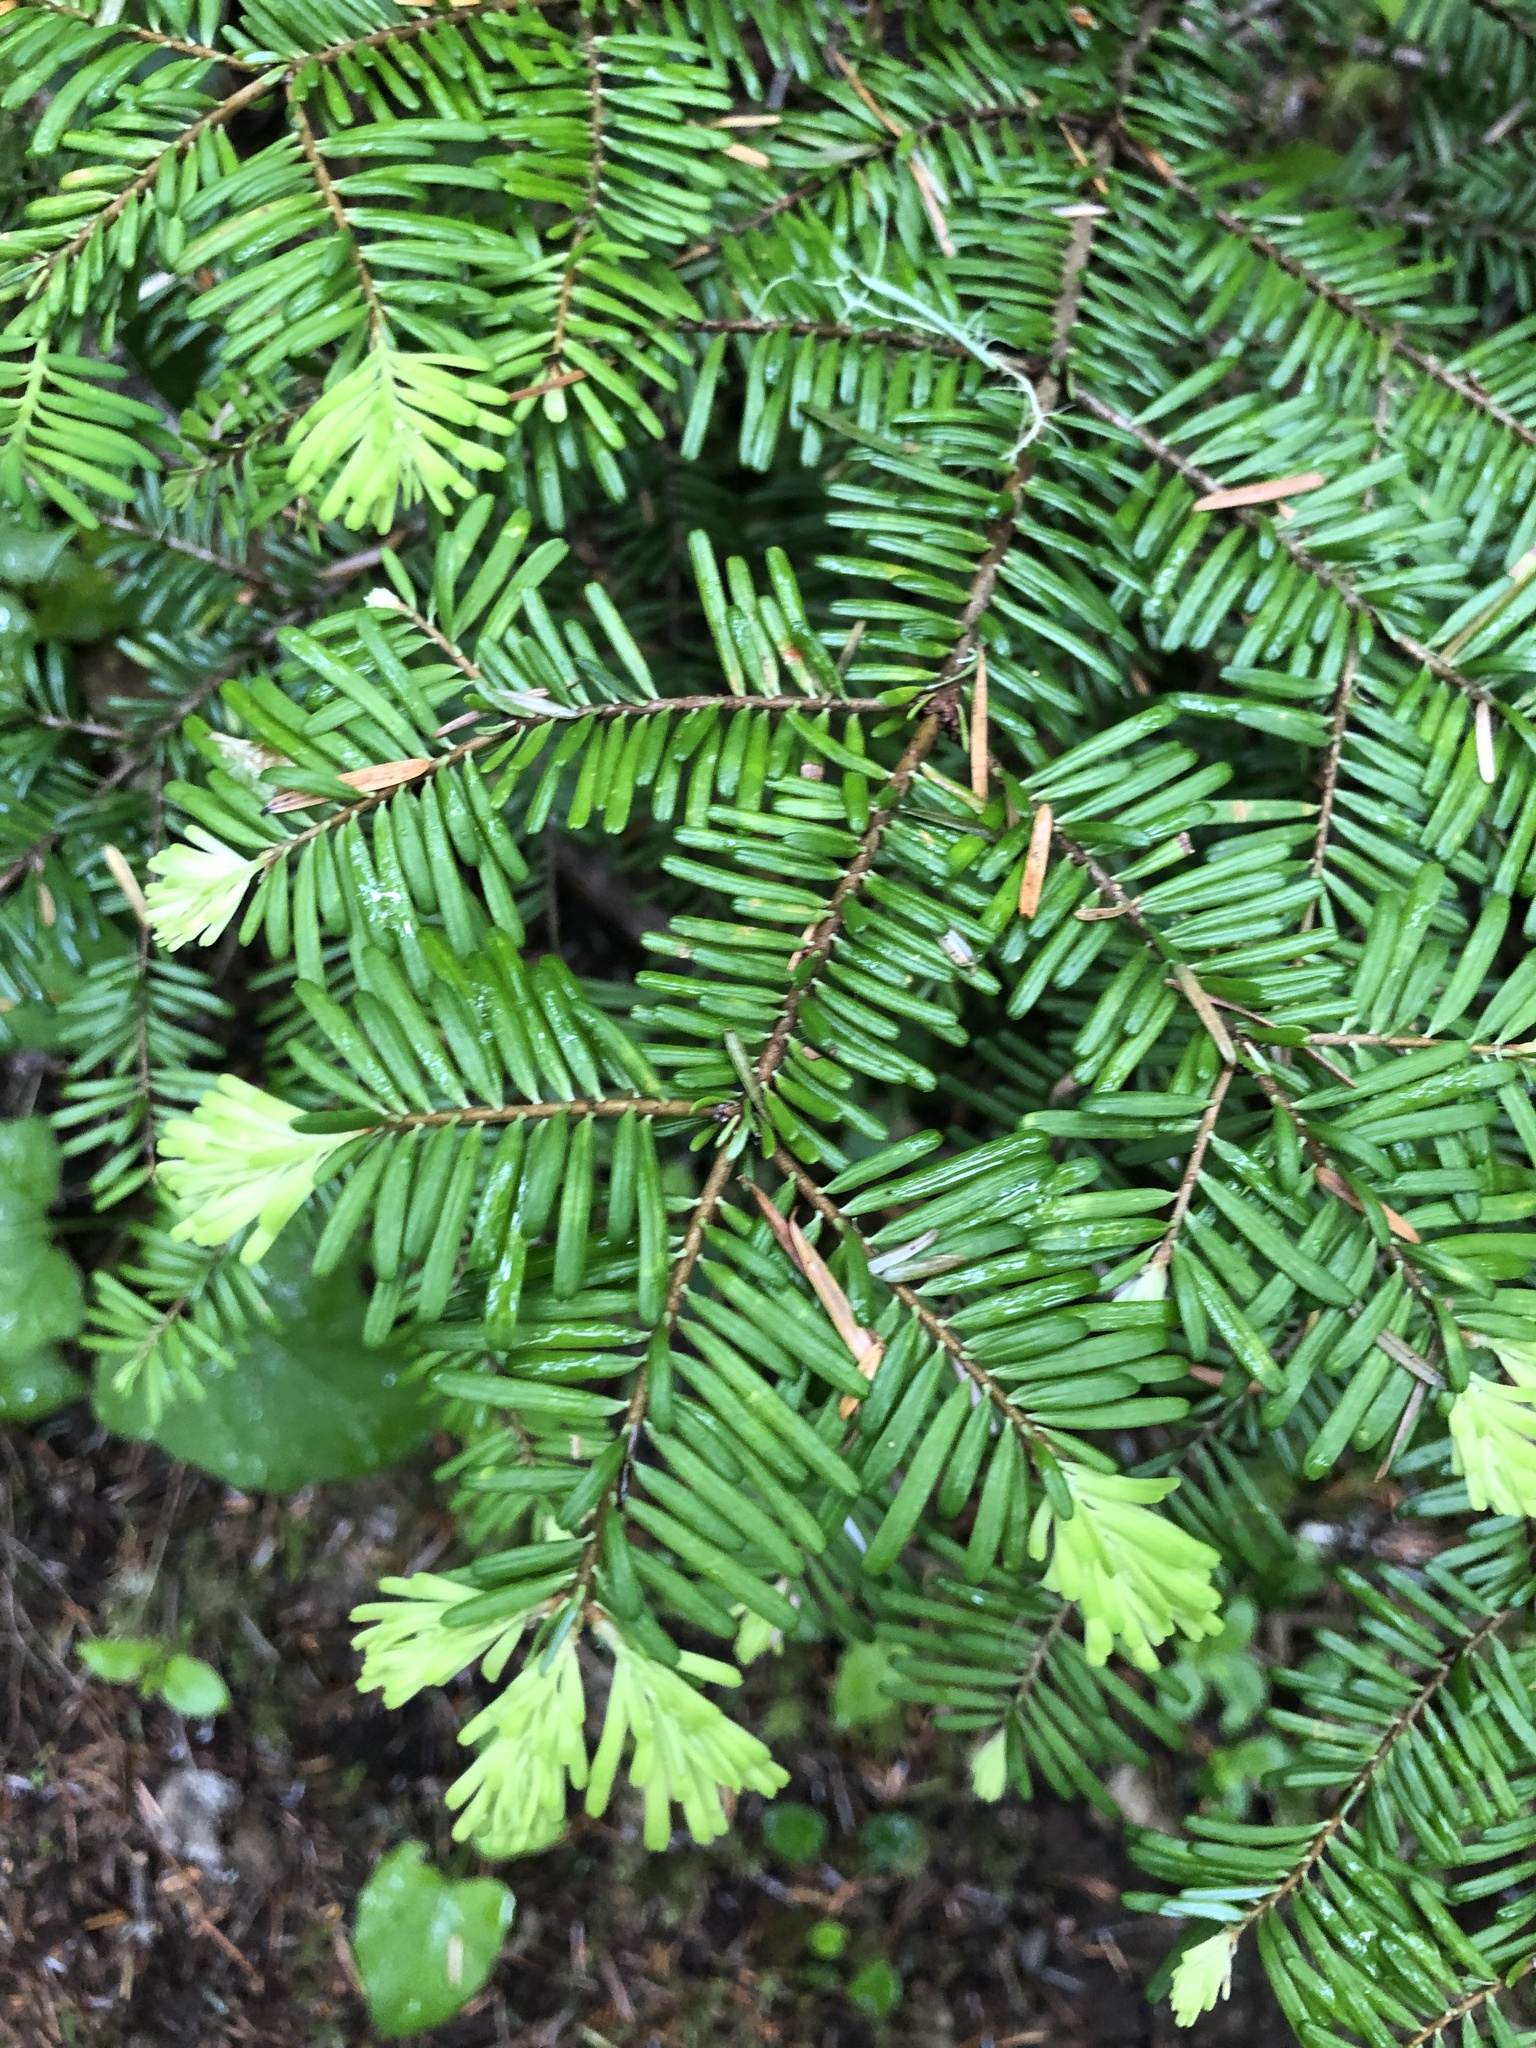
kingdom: Plantae
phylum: Tracheophyta
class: Pinopsida
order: Pinales
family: Pinaceae
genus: Abies
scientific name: Abies amabilis
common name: Pacific silver fir
